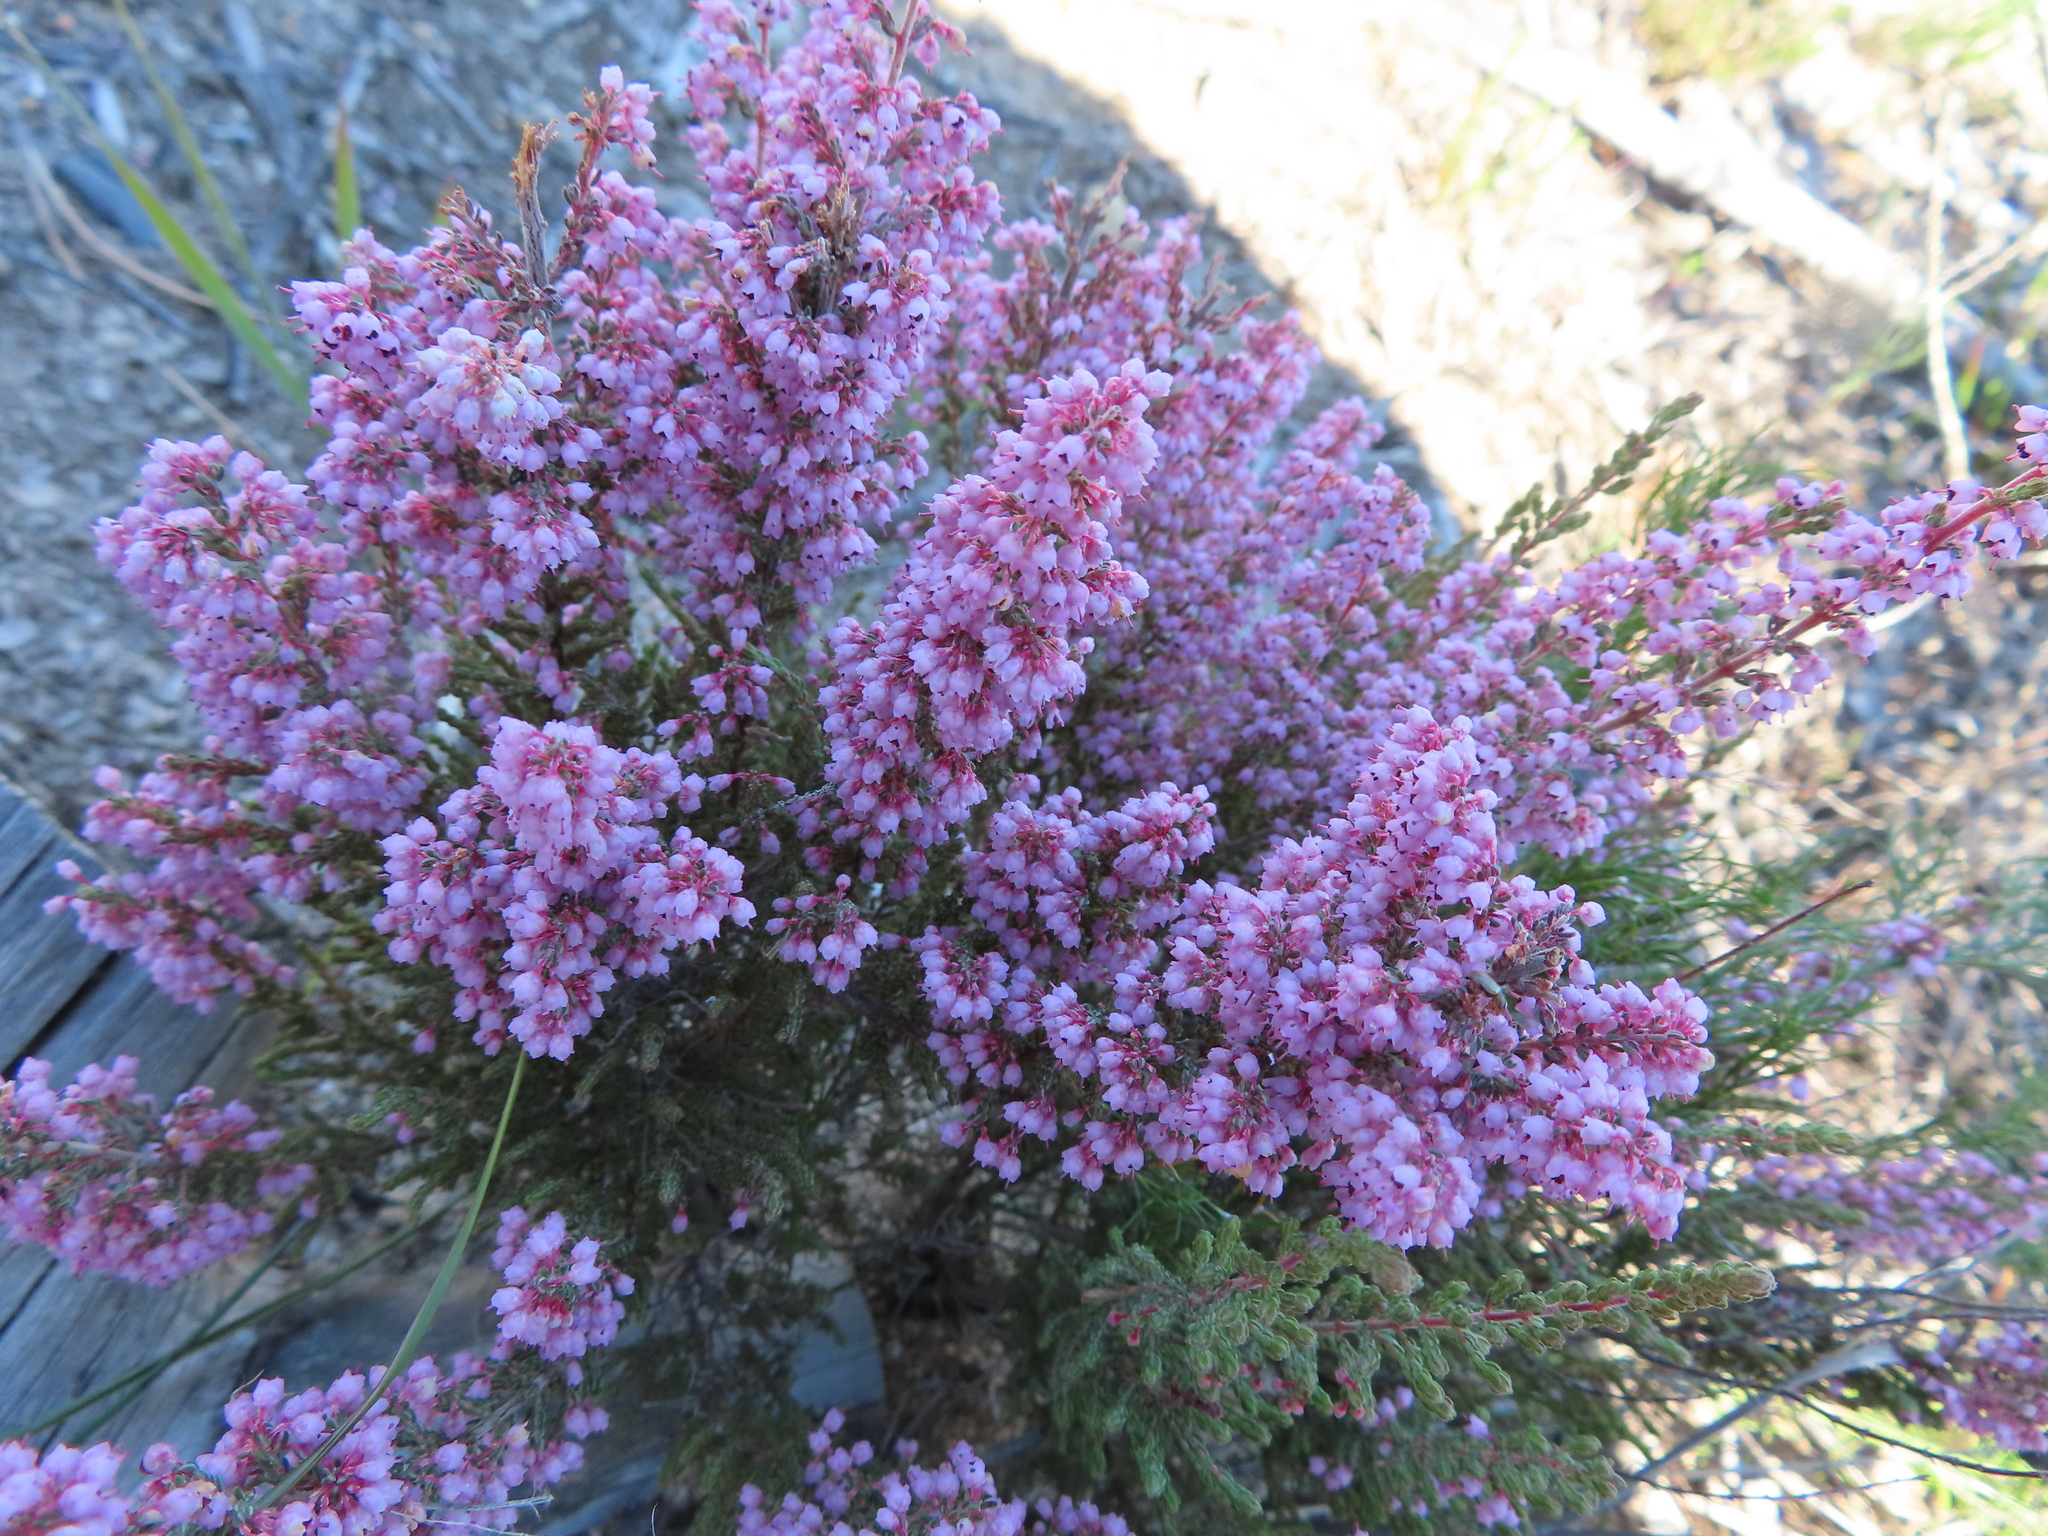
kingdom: Plantae
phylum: Tracheophyta
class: Magnoliopsida
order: Ericales
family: Ericaceae
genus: Erica
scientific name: Erica quadrangularis
